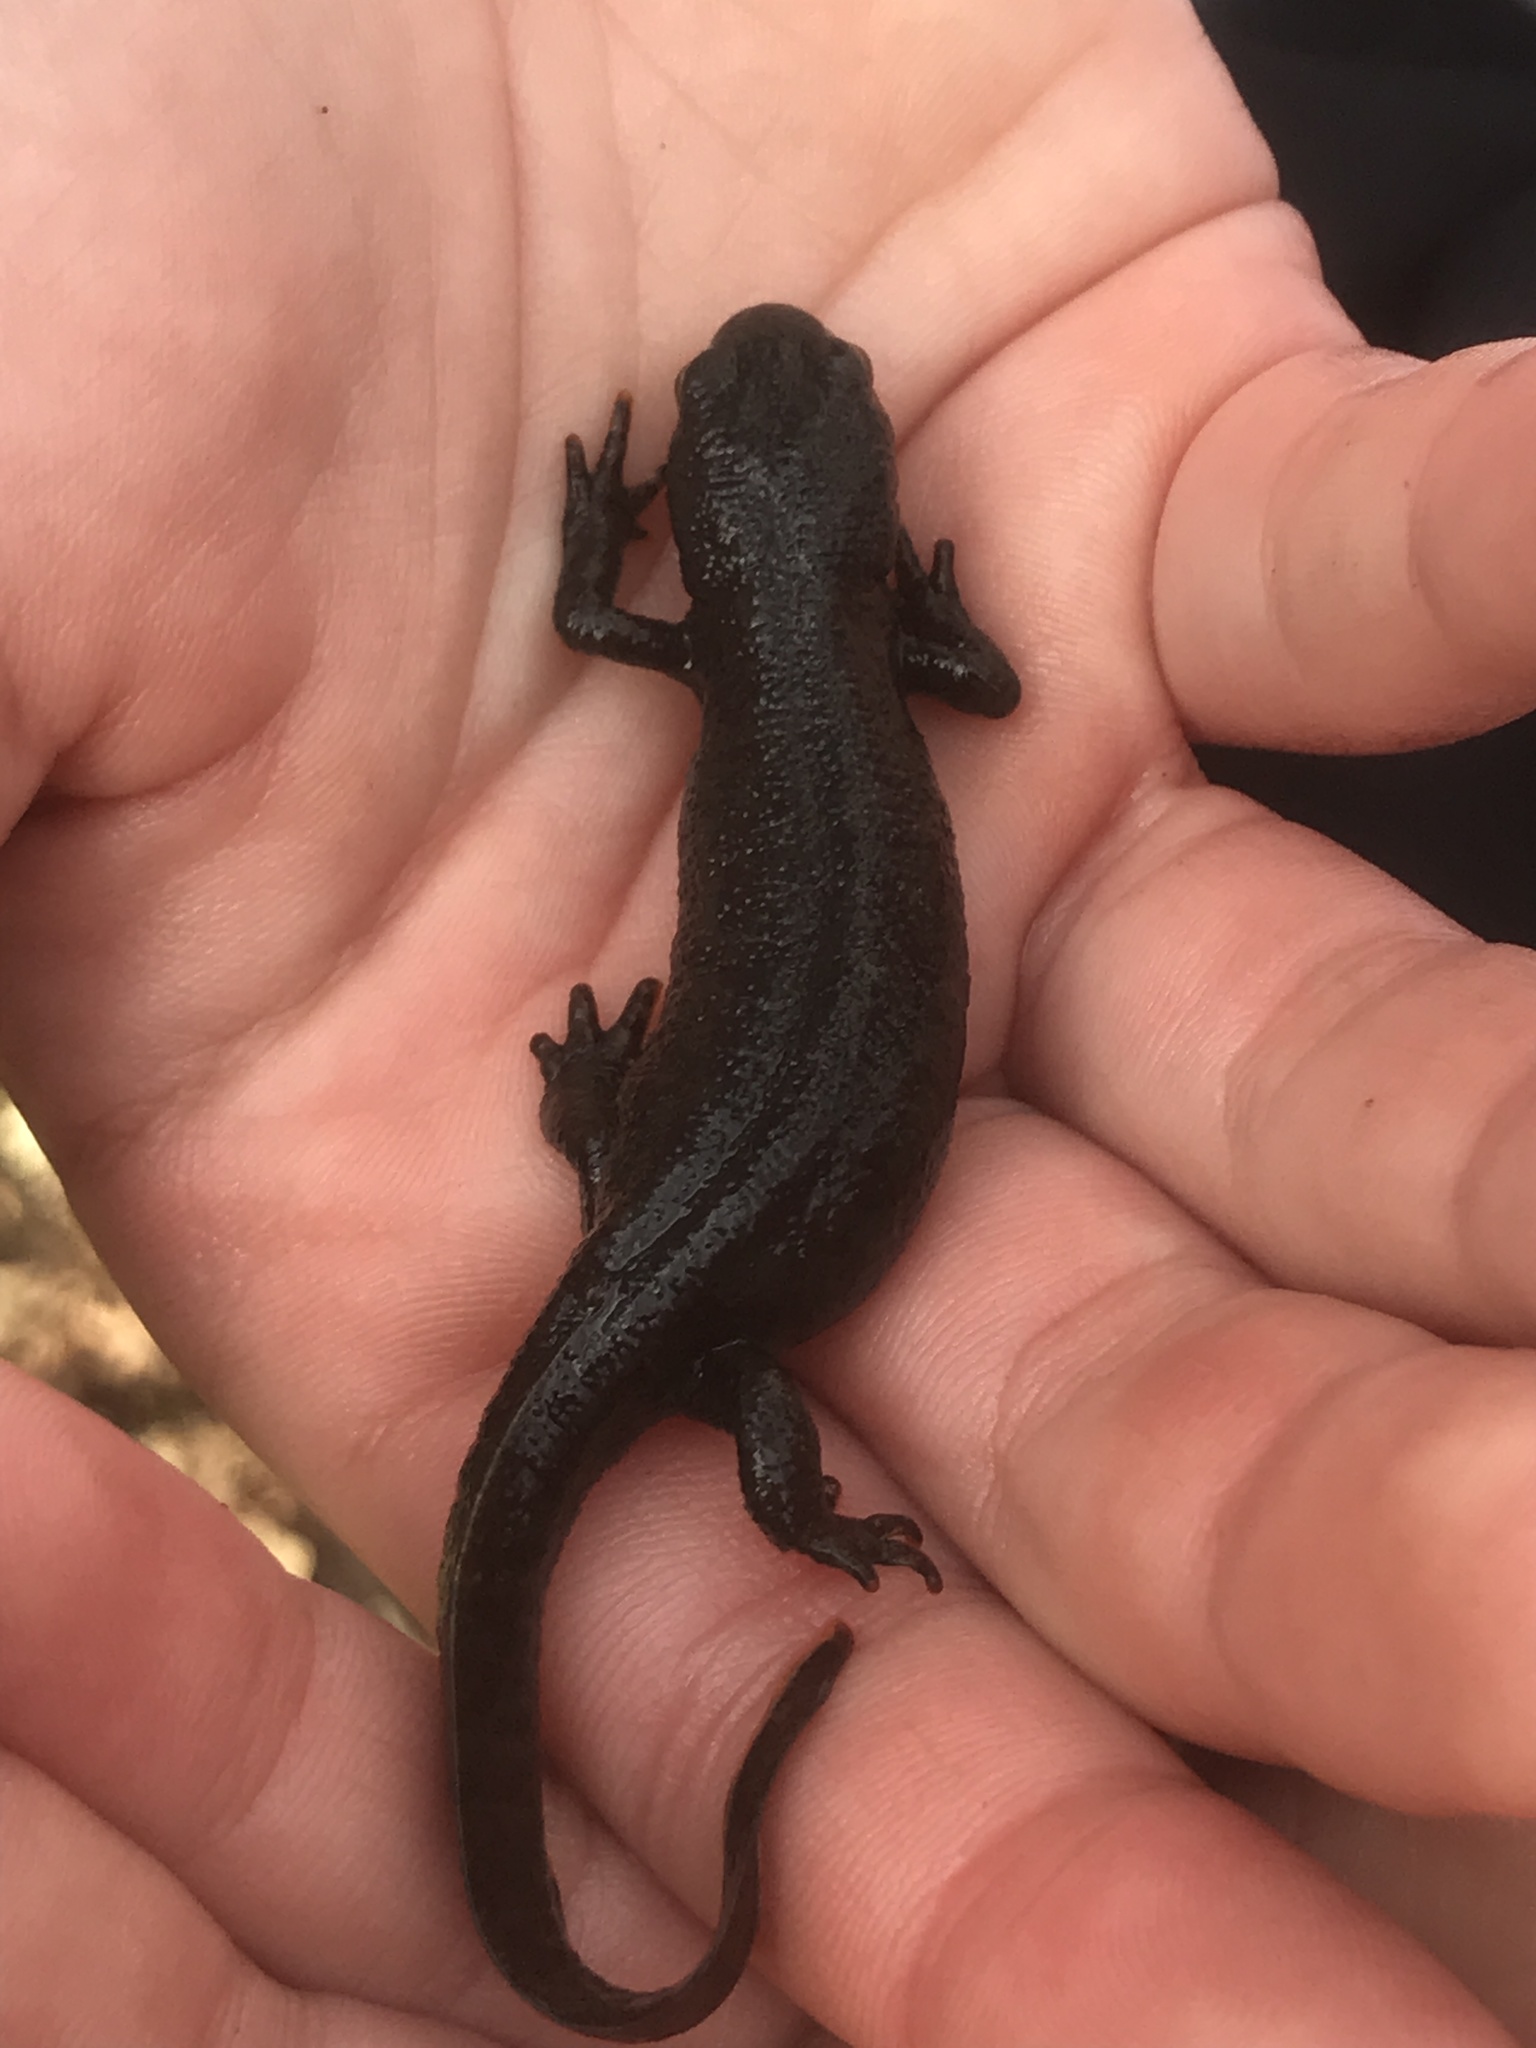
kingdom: Animalia
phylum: Chordata
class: Amphibia
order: Caudata
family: Salamandridae
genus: Ichthyosaura
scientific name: Ichthyosaura alpestris
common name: Alpine newt
